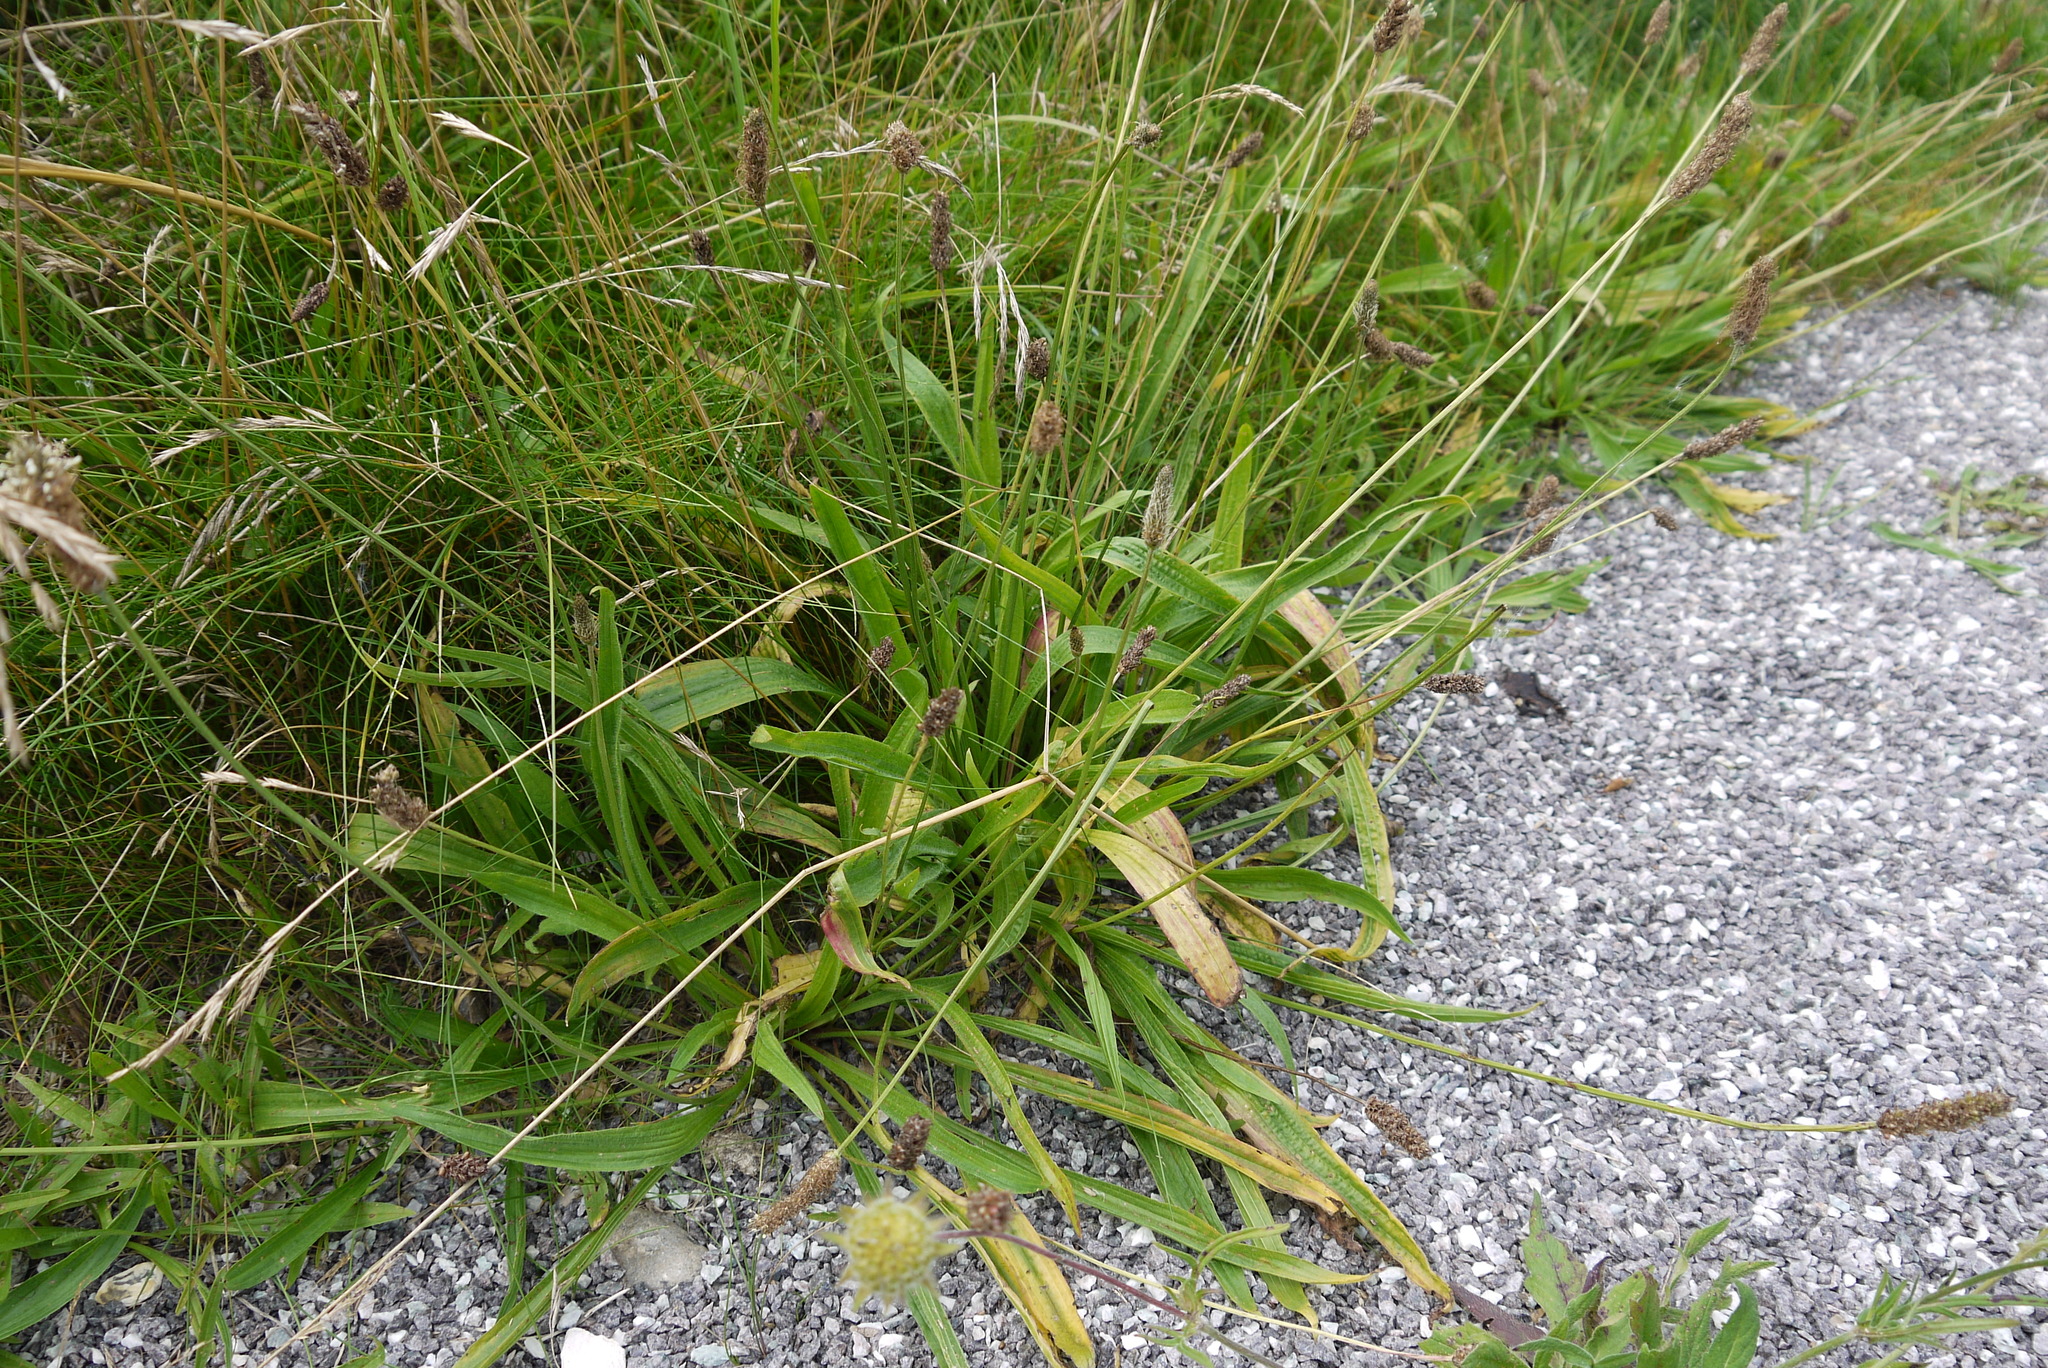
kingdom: Plantae
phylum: Tracheophyta
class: Magnoliopsida
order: Lamiales
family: Plantaginaceae
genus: Plantago
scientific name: Plantago lanceolata
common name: Ribwort plantain
